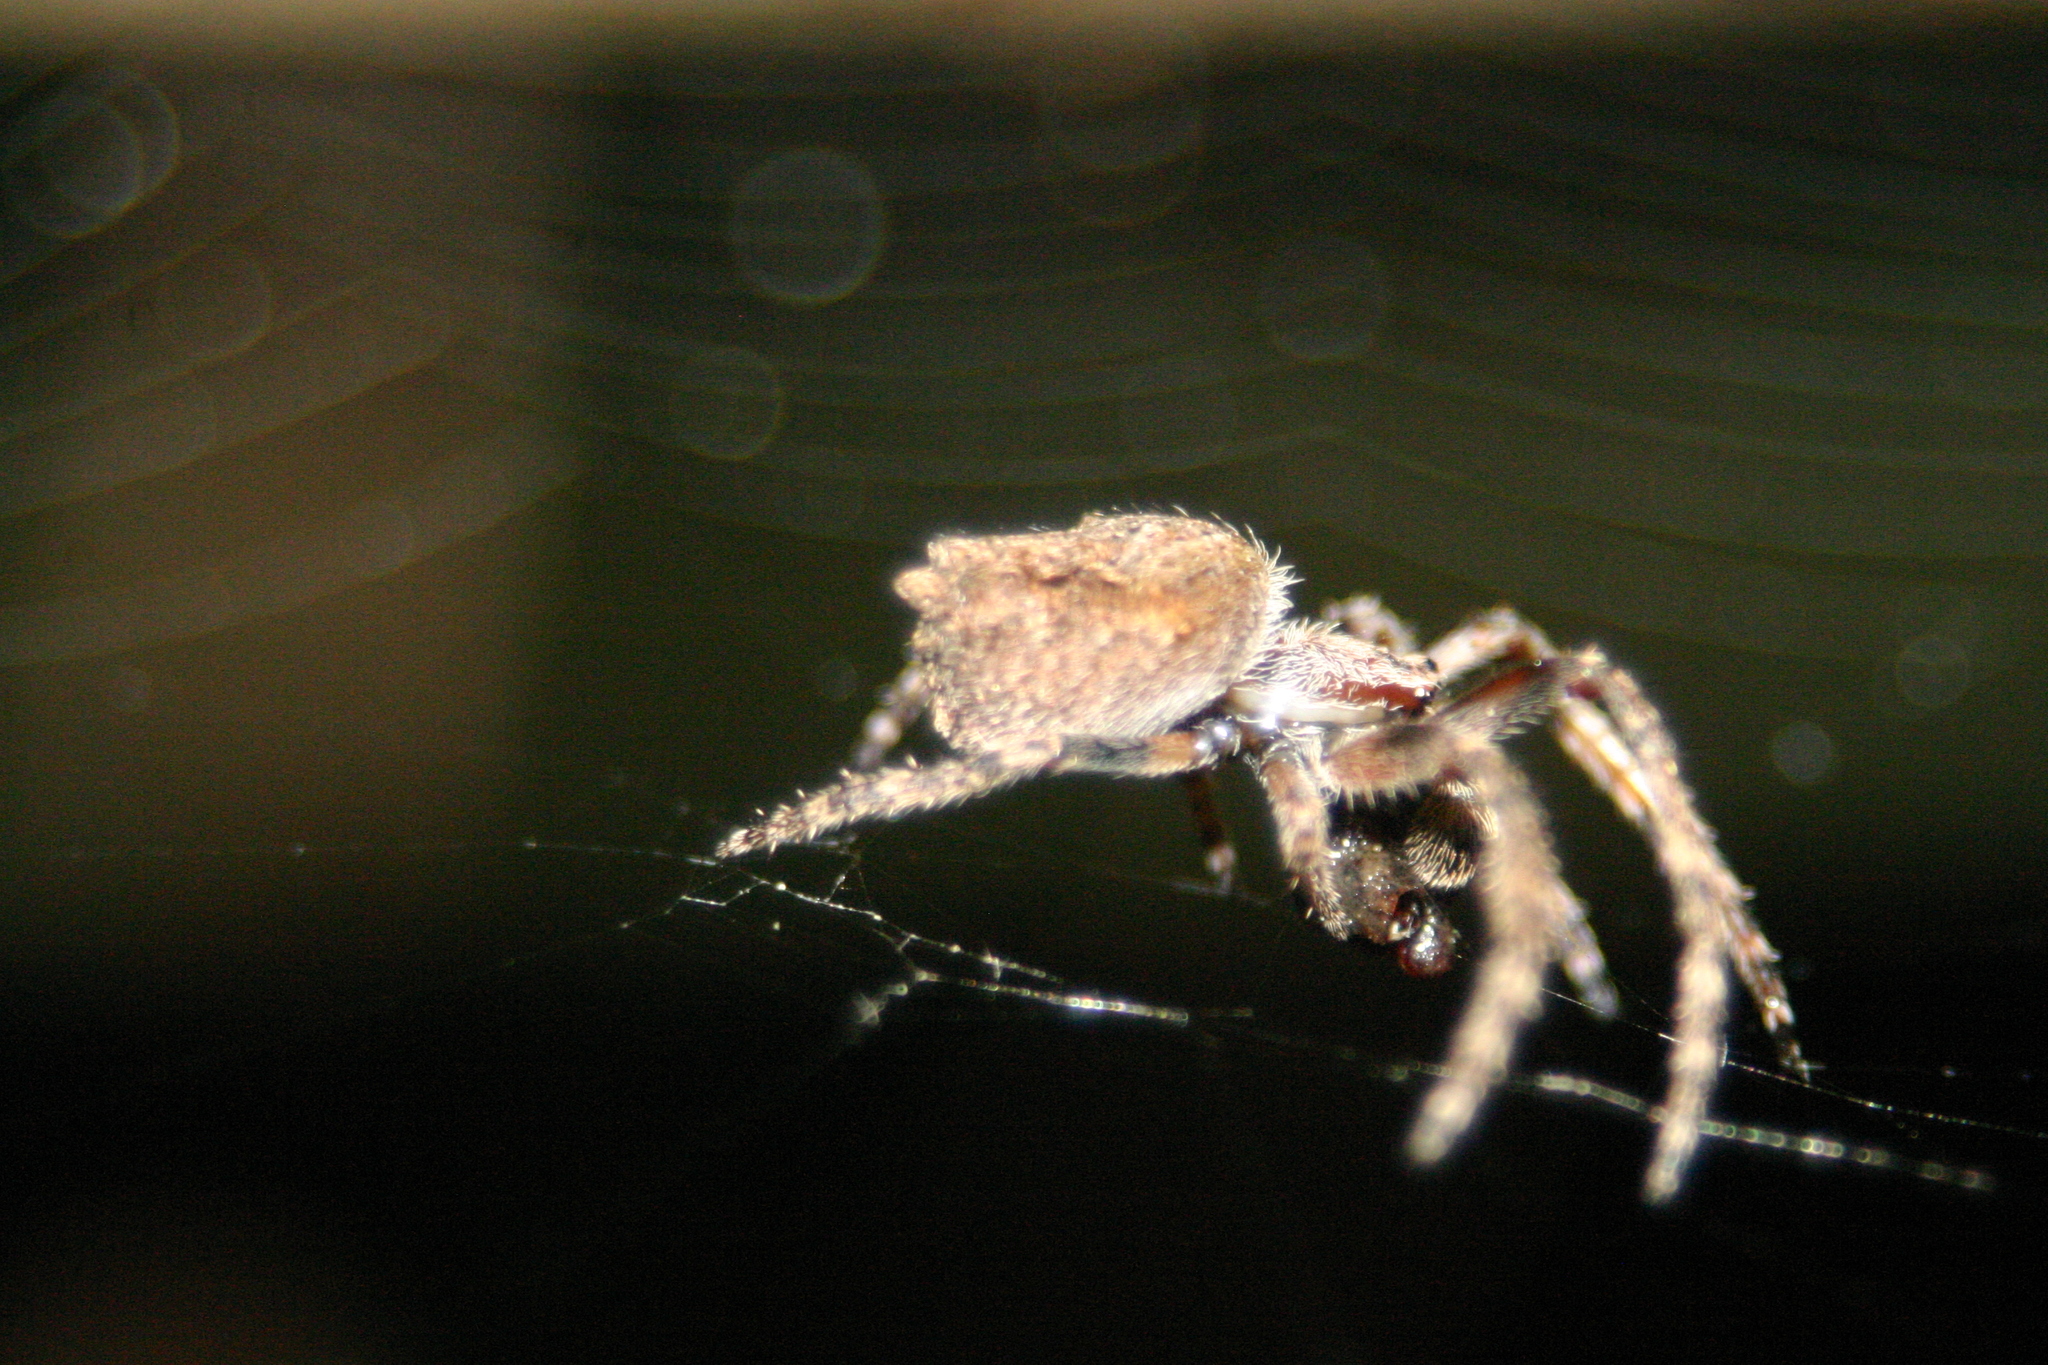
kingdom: Animalia
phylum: Arthropoda
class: Arachnida
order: Araneae
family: Araneidae
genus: Eriophora
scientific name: Eriophora pustulosa
